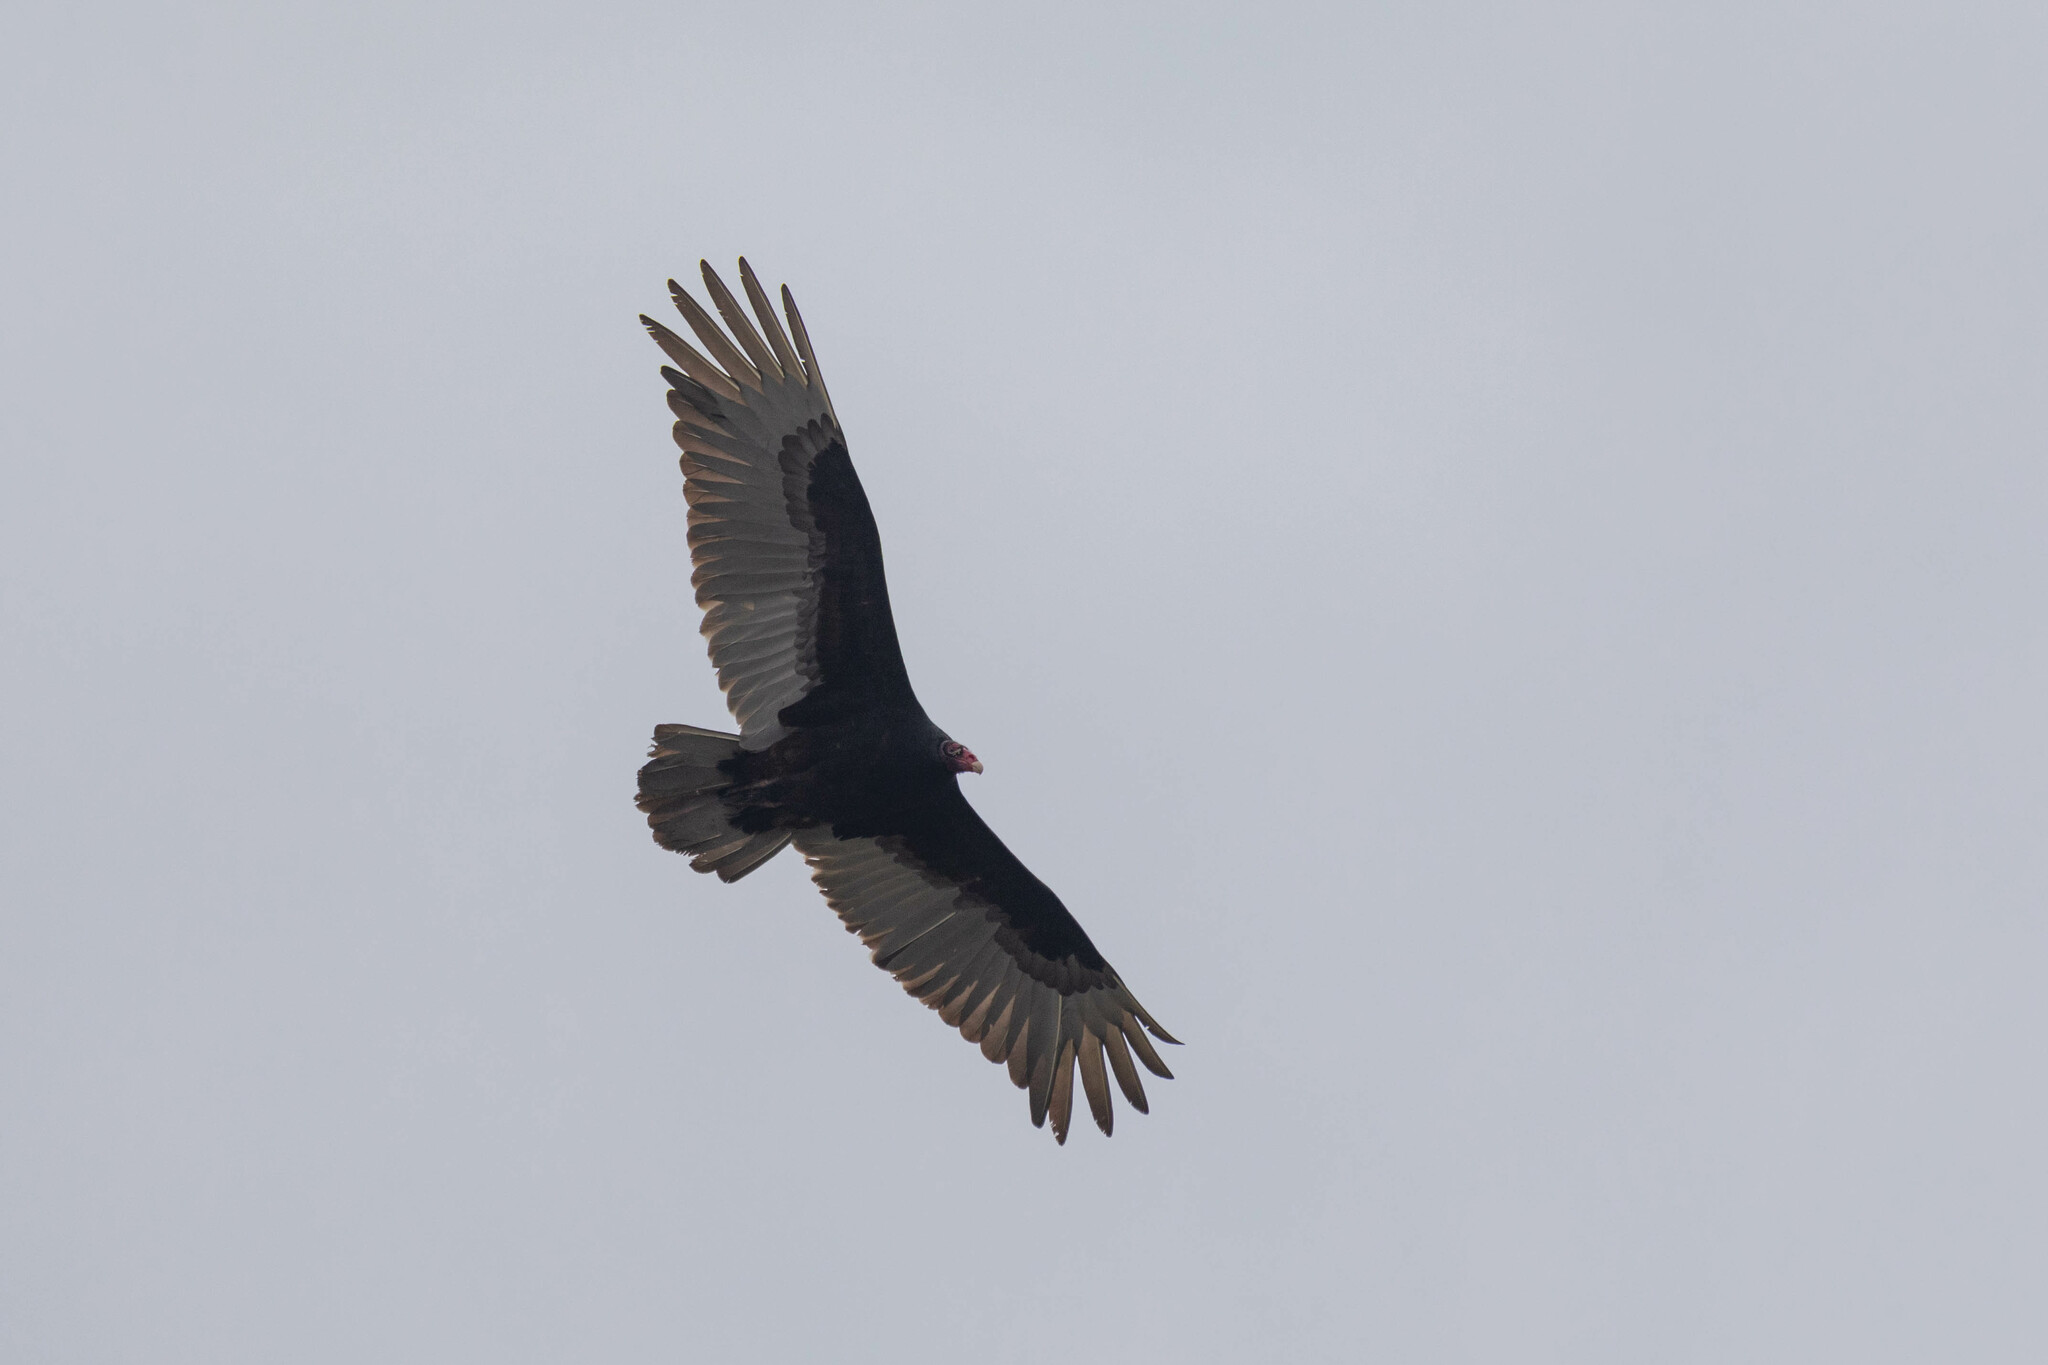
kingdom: Animalia
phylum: Chordata
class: Aves
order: Accipitriformes
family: Cathartidae
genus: Cathartes
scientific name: Cathartes aura
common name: Turkey vulture
